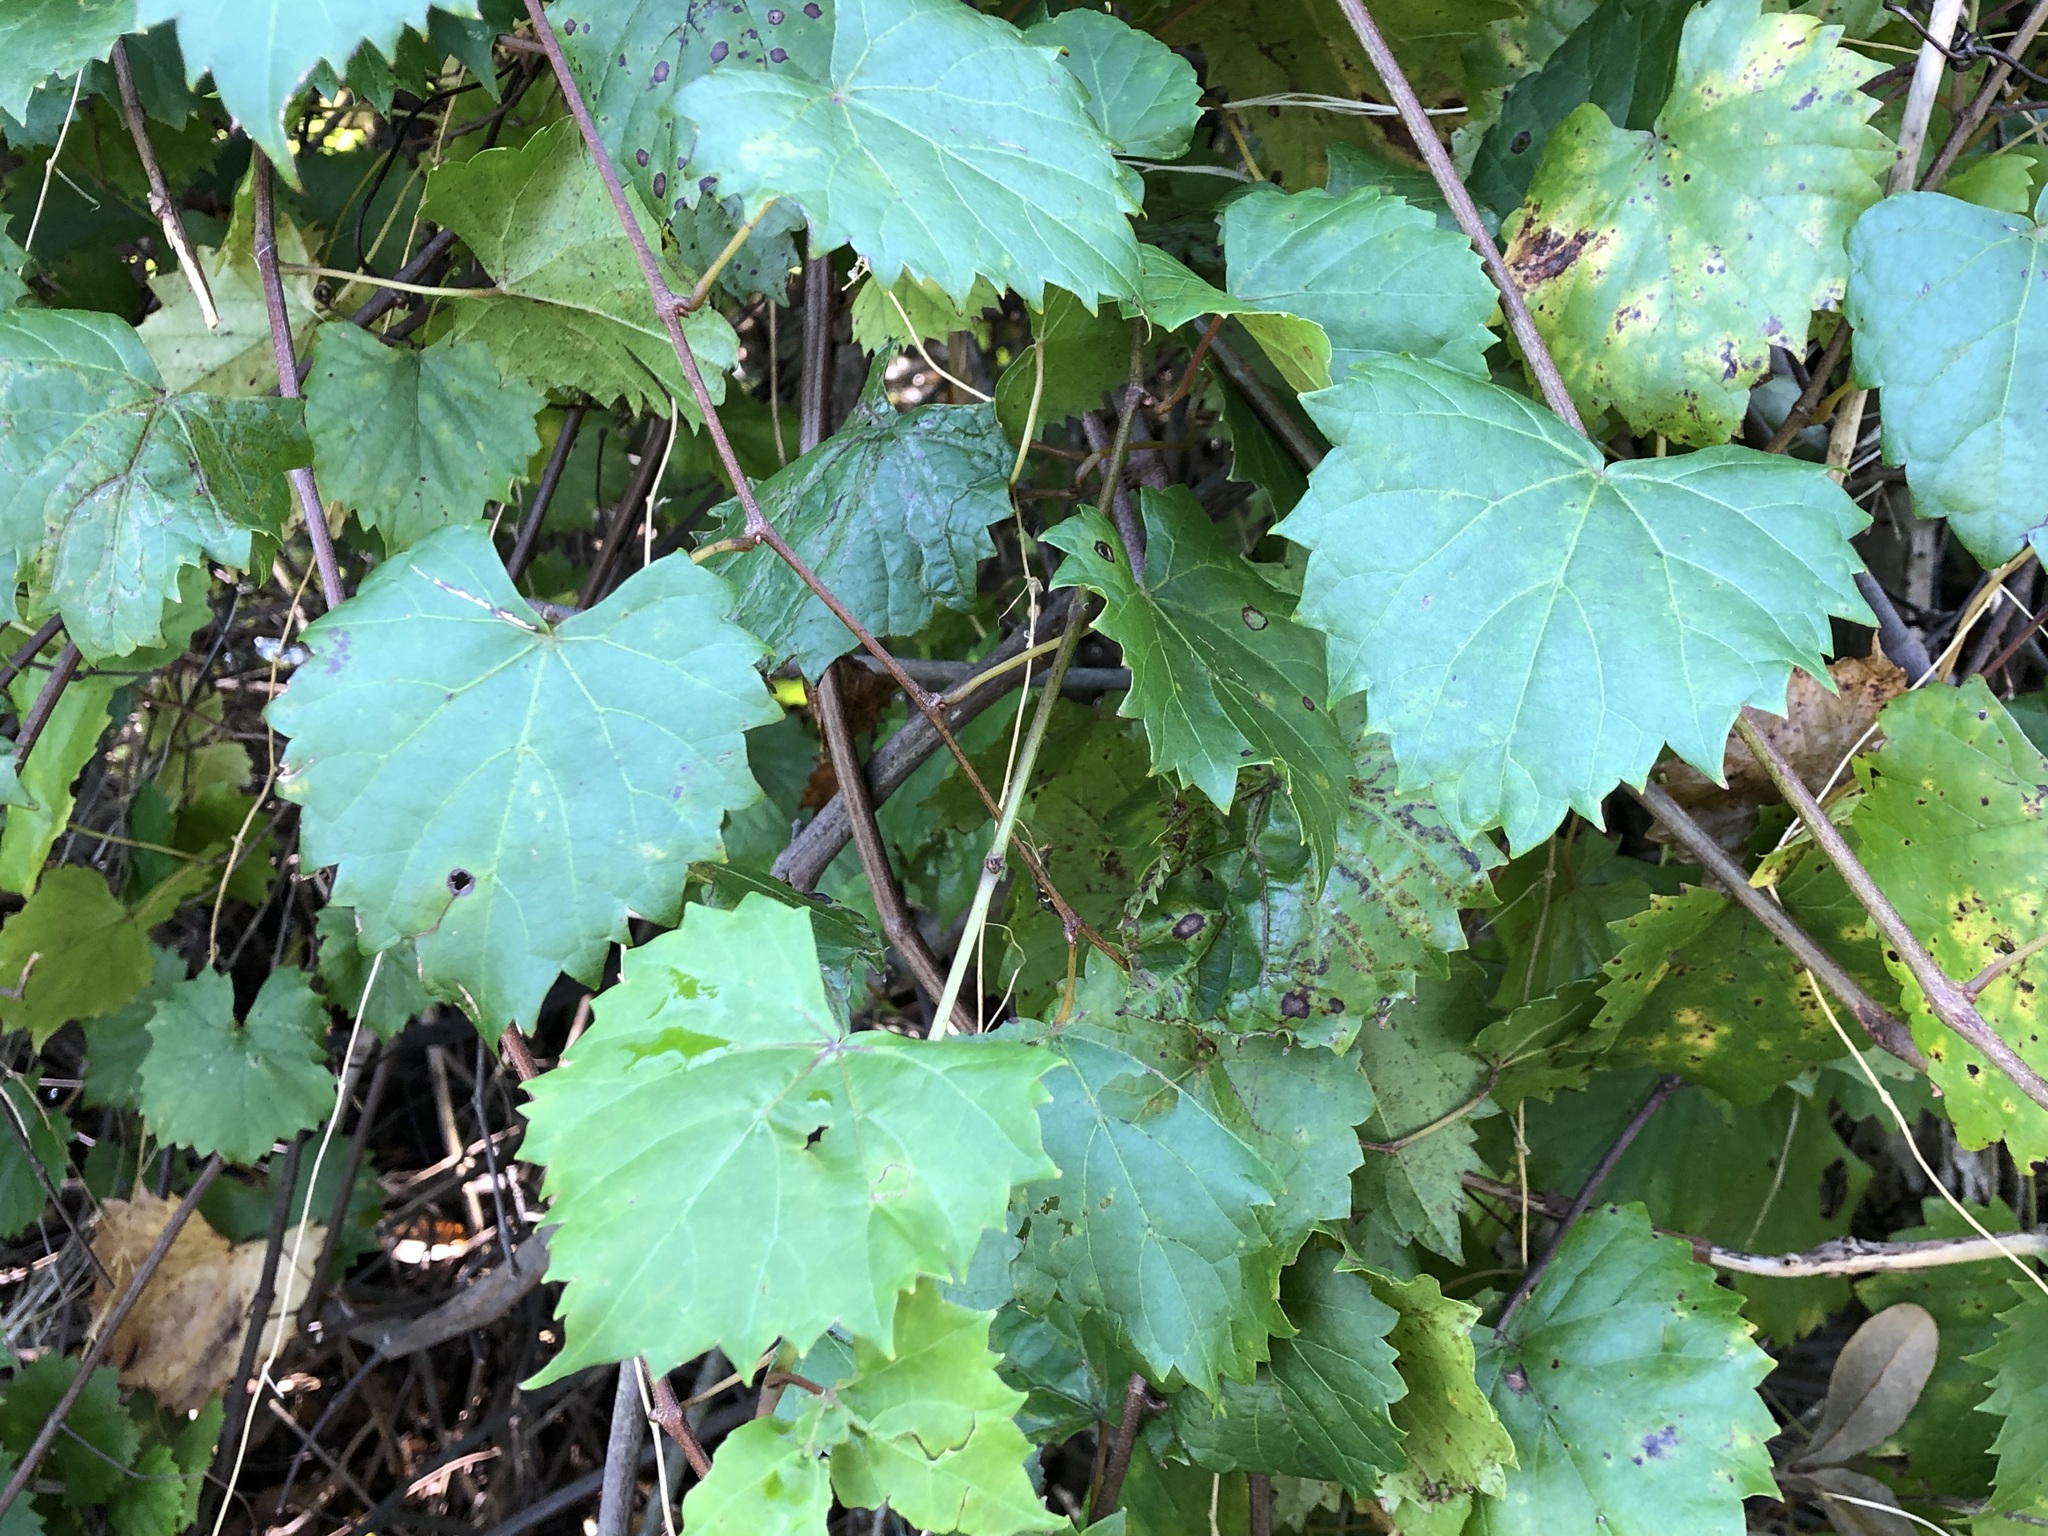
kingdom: Plantae
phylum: Tracheophyta
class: Magnoliopsida
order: Vitales
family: Vitaceae
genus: Vitis
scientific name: Vitis rotundifolia
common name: Muscadine grape
